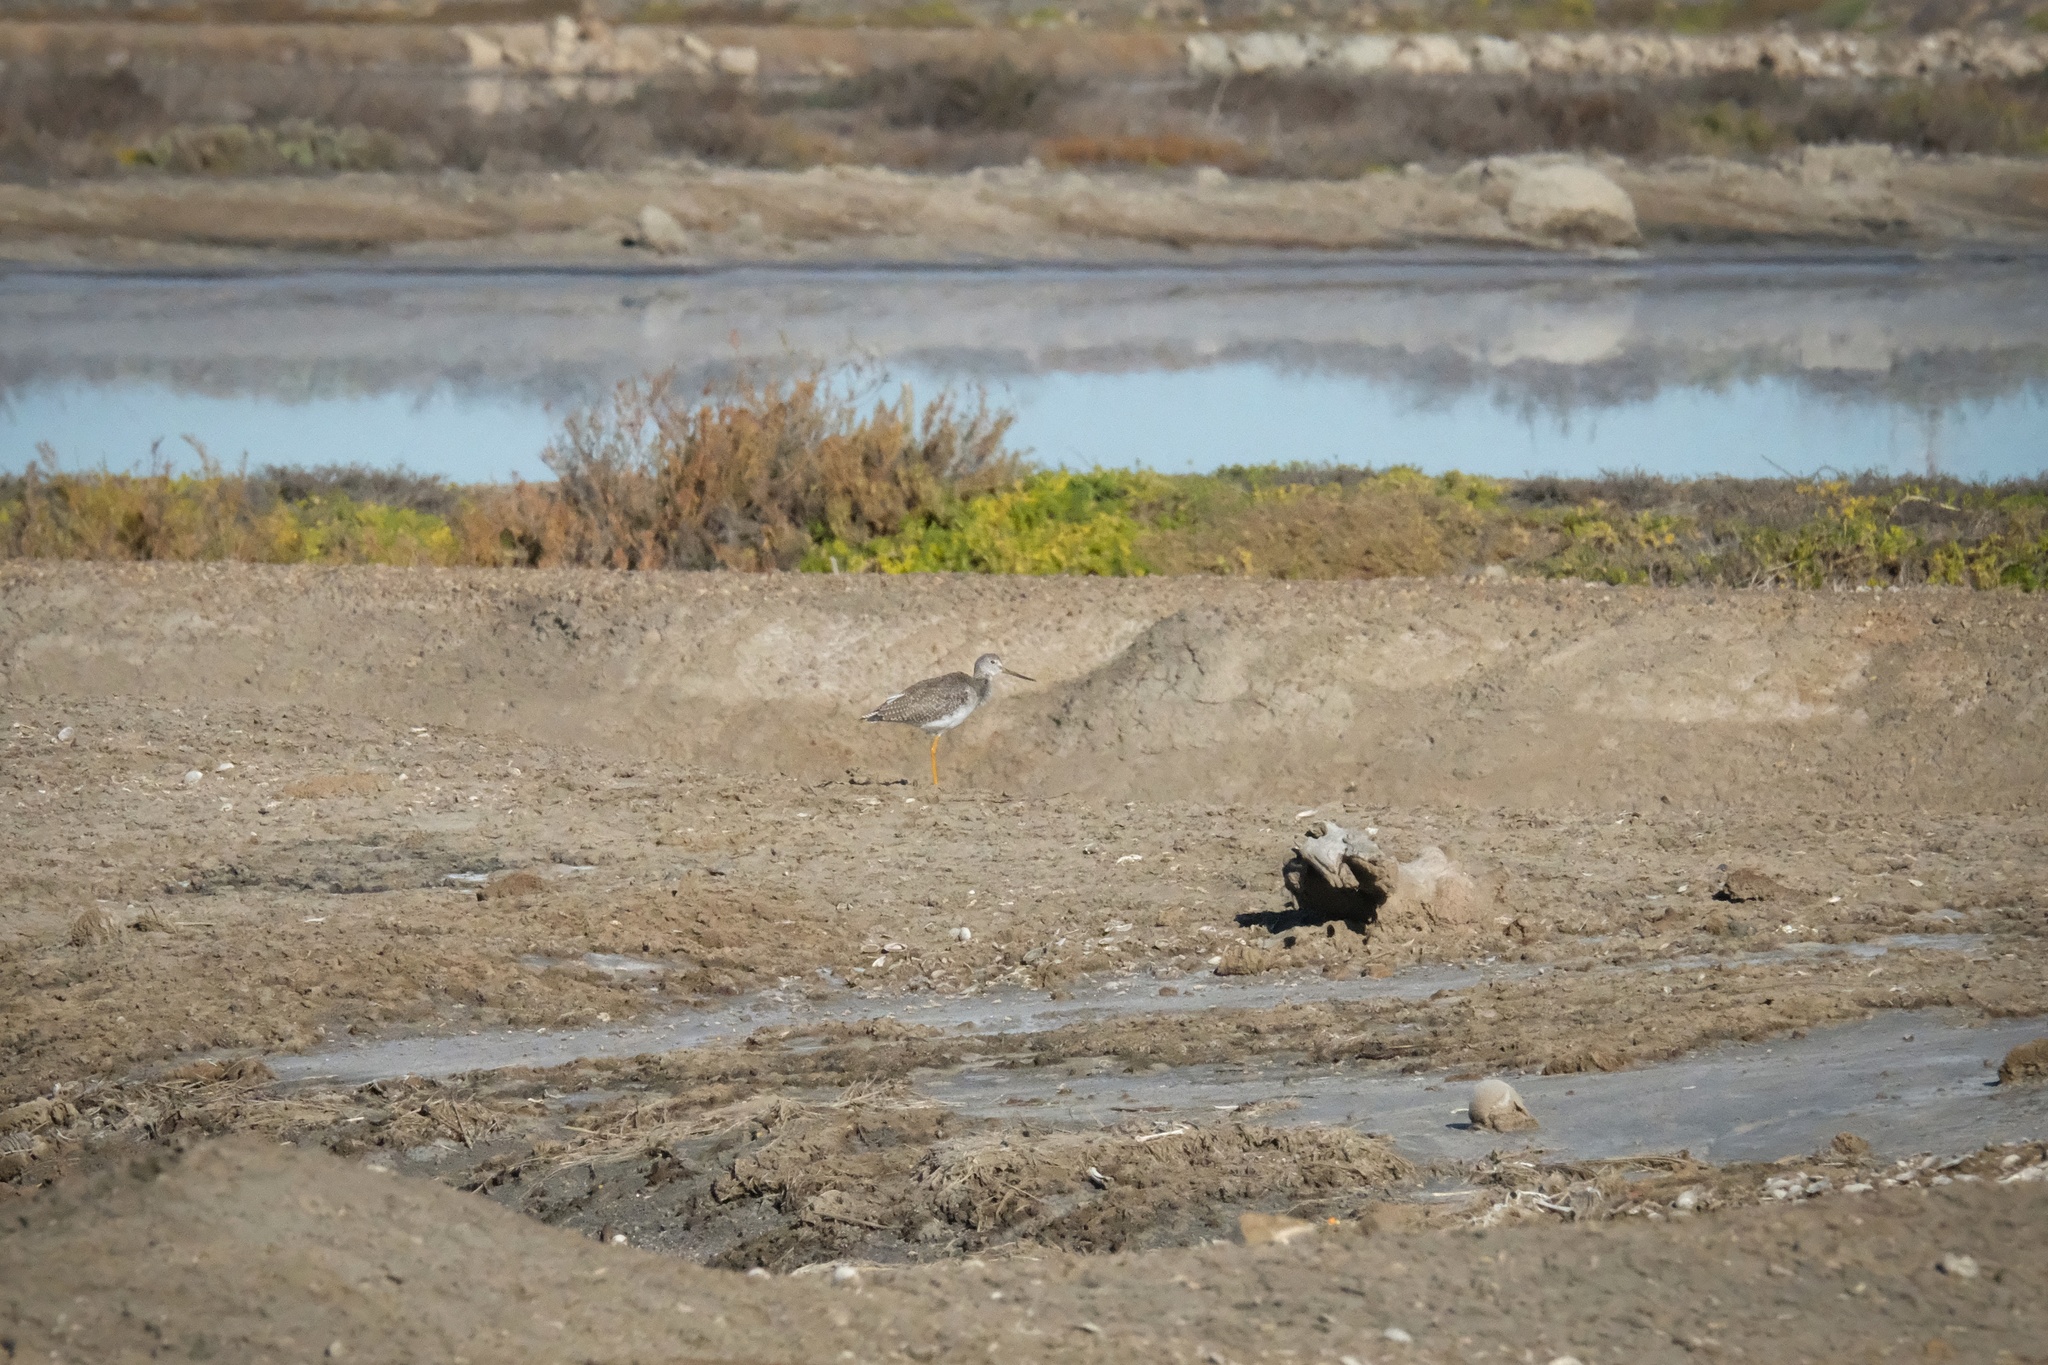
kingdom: Animalia
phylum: Chordata
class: Aves
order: Charadriiformes
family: Scolopacidae
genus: Tringa
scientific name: Tringa melanoleuca
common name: Greater yellowlegs
